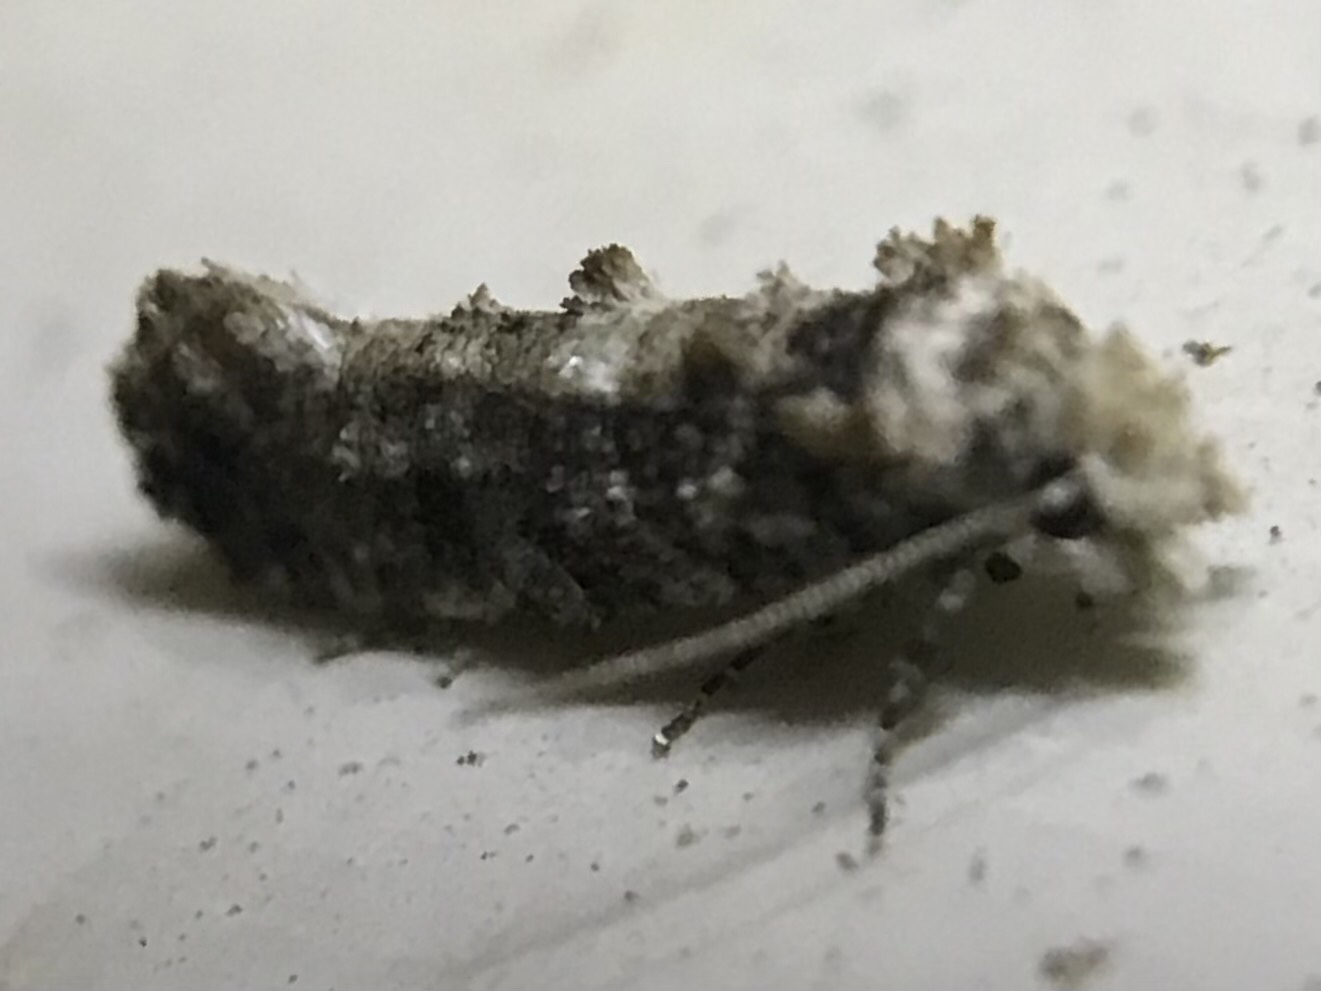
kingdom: Animalia
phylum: Arthropoda
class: Insecta
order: Lepidoptera
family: Tineidae
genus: Xylesthia
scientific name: Xylesthia pruniramiella
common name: Clemens' bark moth
